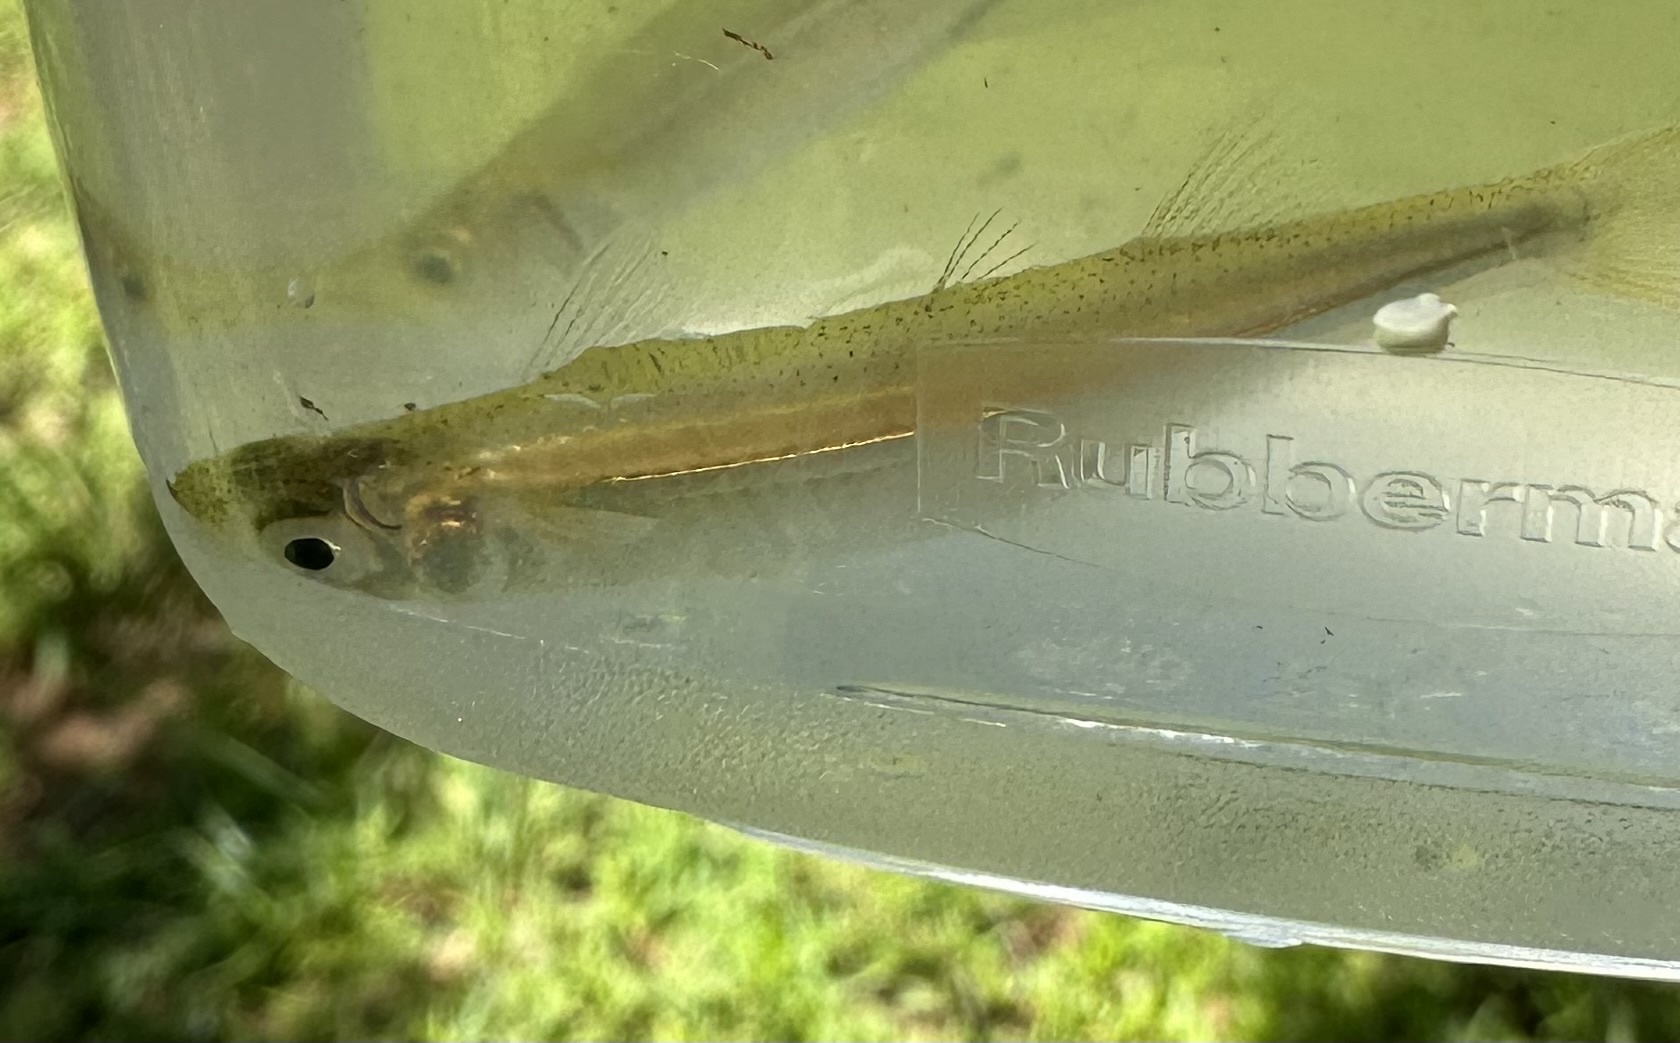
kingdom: Animalia
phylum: Chordata
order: Atheriniformes
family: Atherinopsidae
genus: Labidesthes
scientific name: Labidesthes sicculus
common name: Brook silverside
